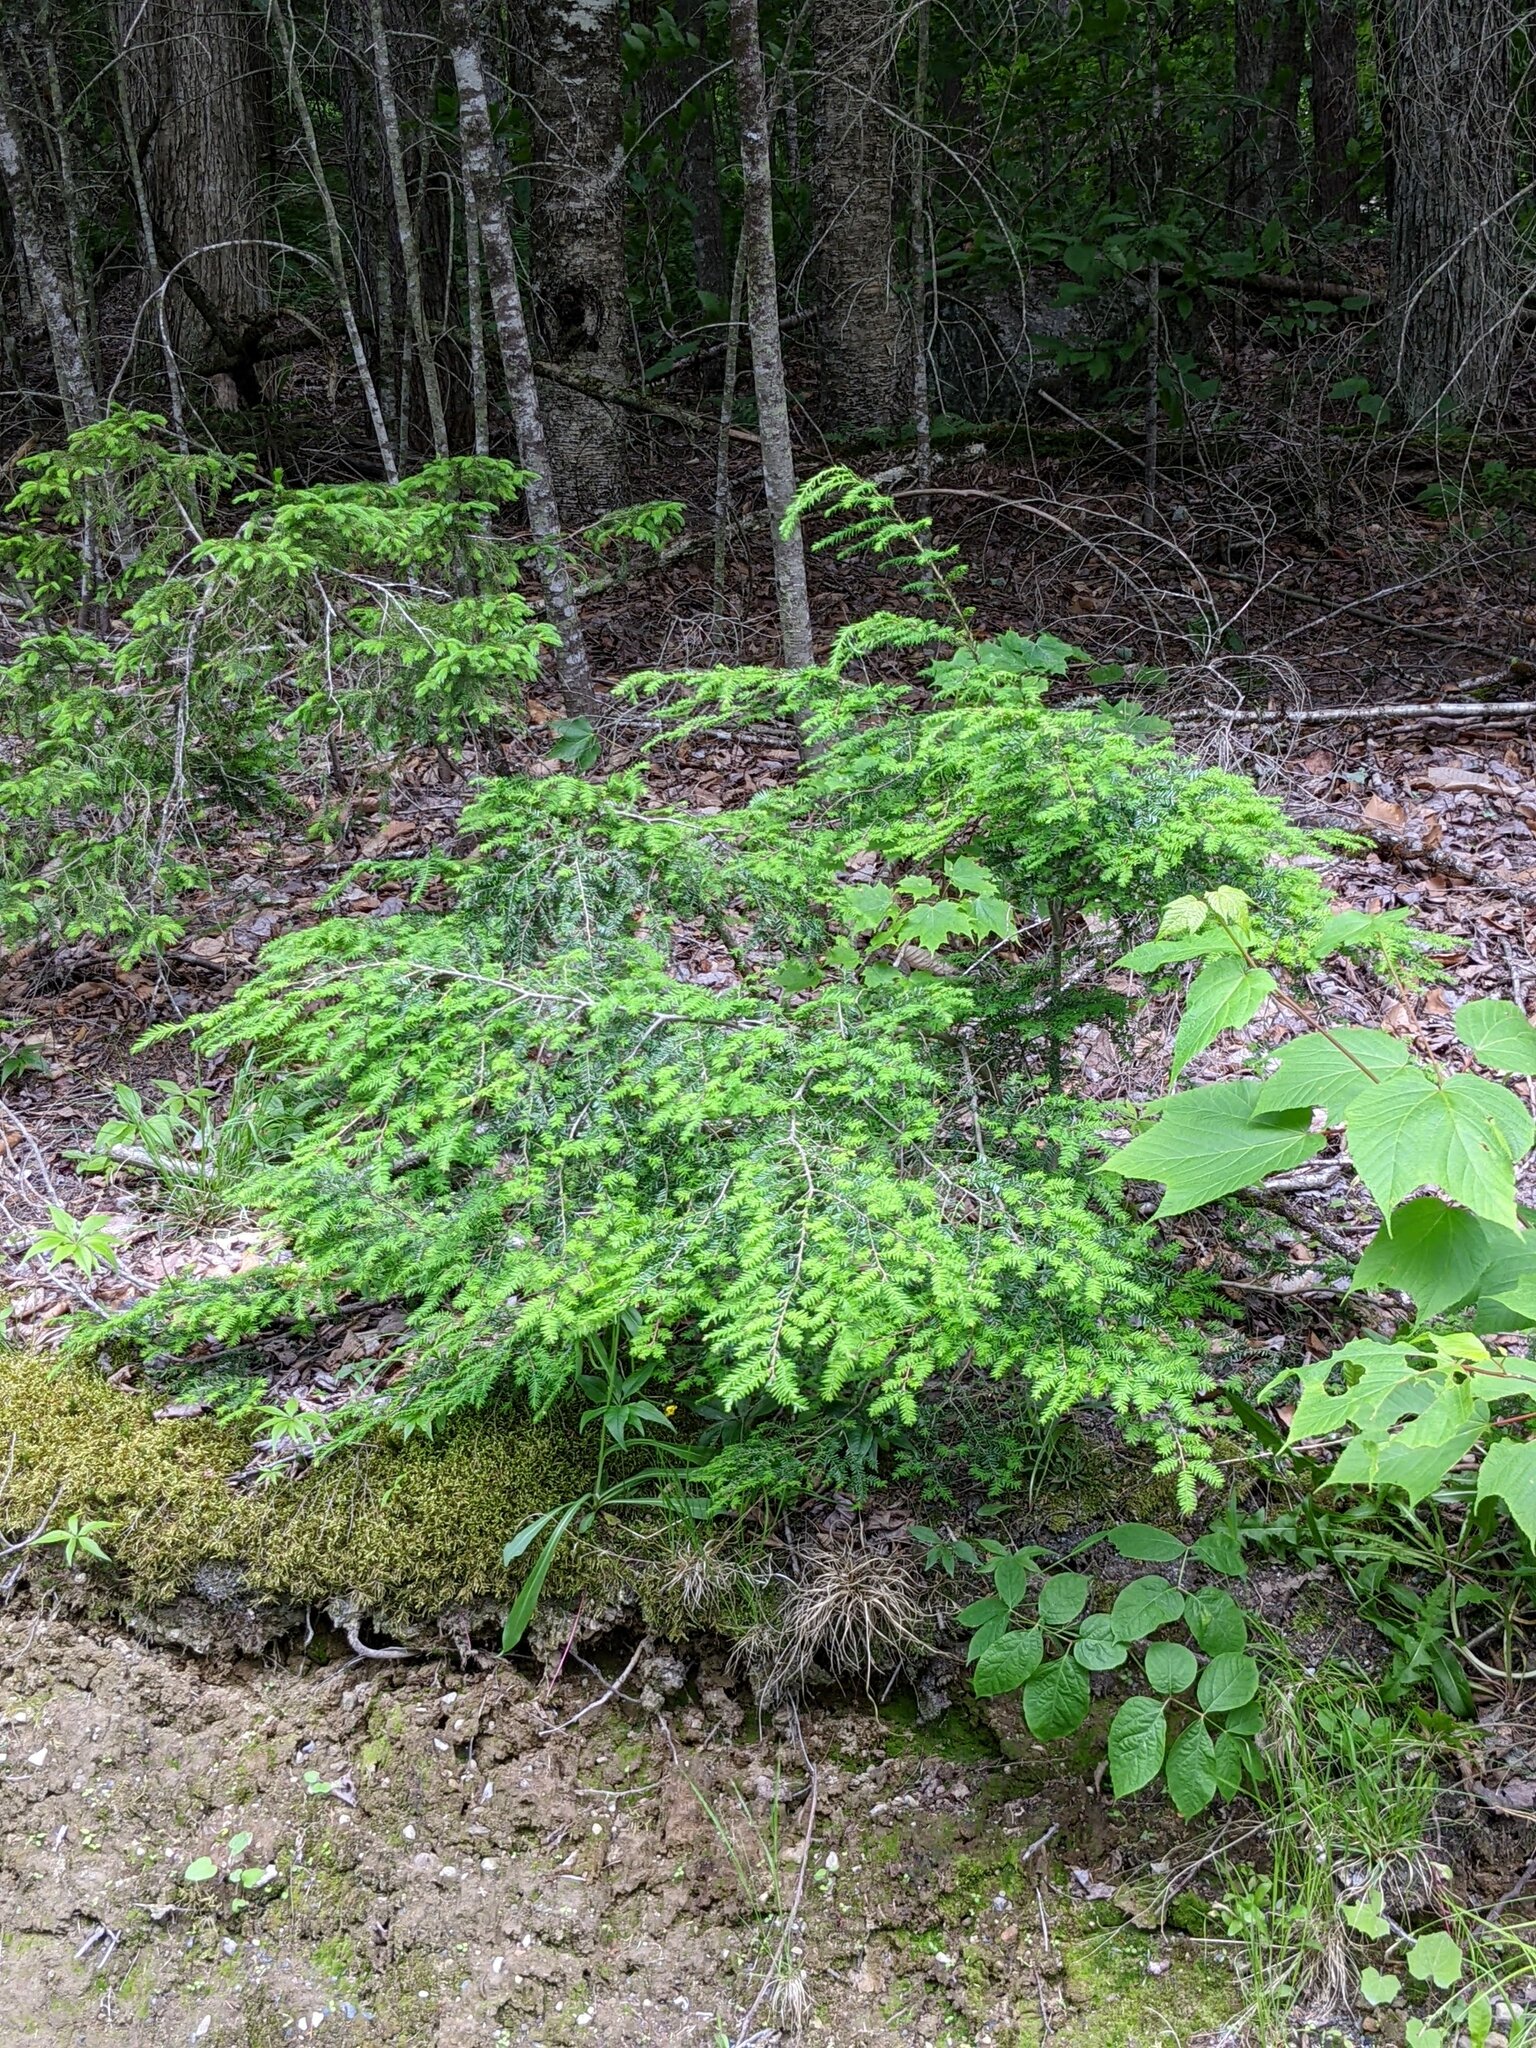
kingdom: Plantae
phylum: Tracheophyta
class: Pinopsida
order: Pinales
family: Pinaceae
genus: Tsuga
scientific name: Tsuga canadensis
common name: Eastern hemlock
